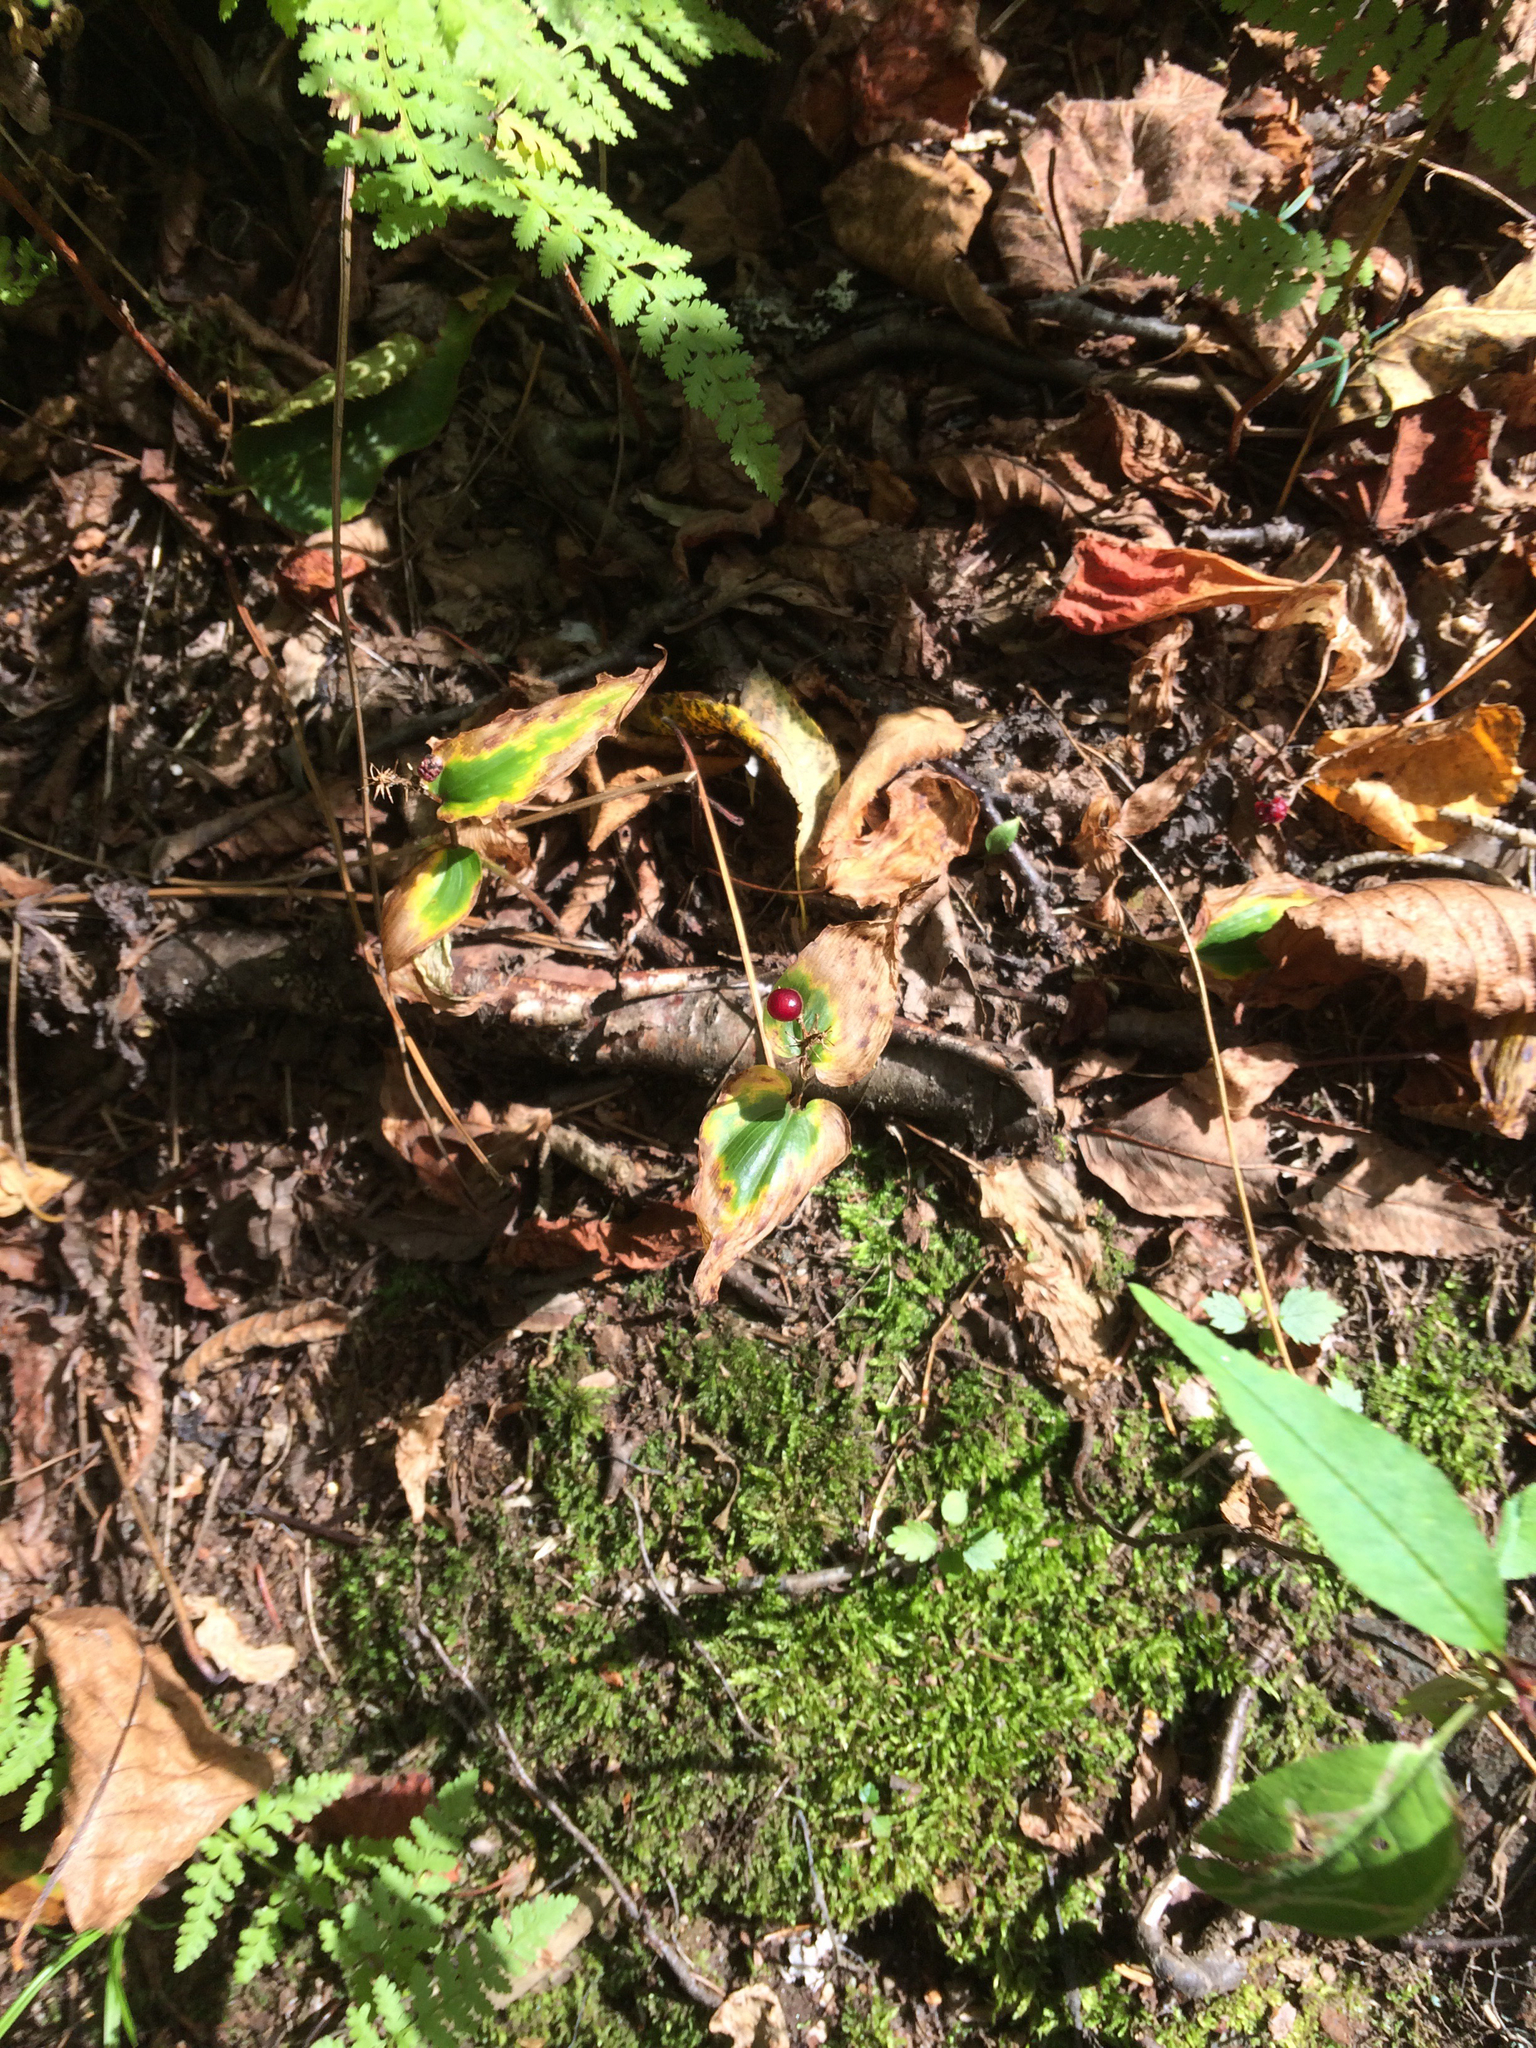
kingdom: Plantae
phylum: Tracheophyta
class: Liliopsida
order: Asparagales
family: Asparagaceae
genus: Maianthemum
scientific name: Maianthemum canadense
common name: False lily-of-the-valley
